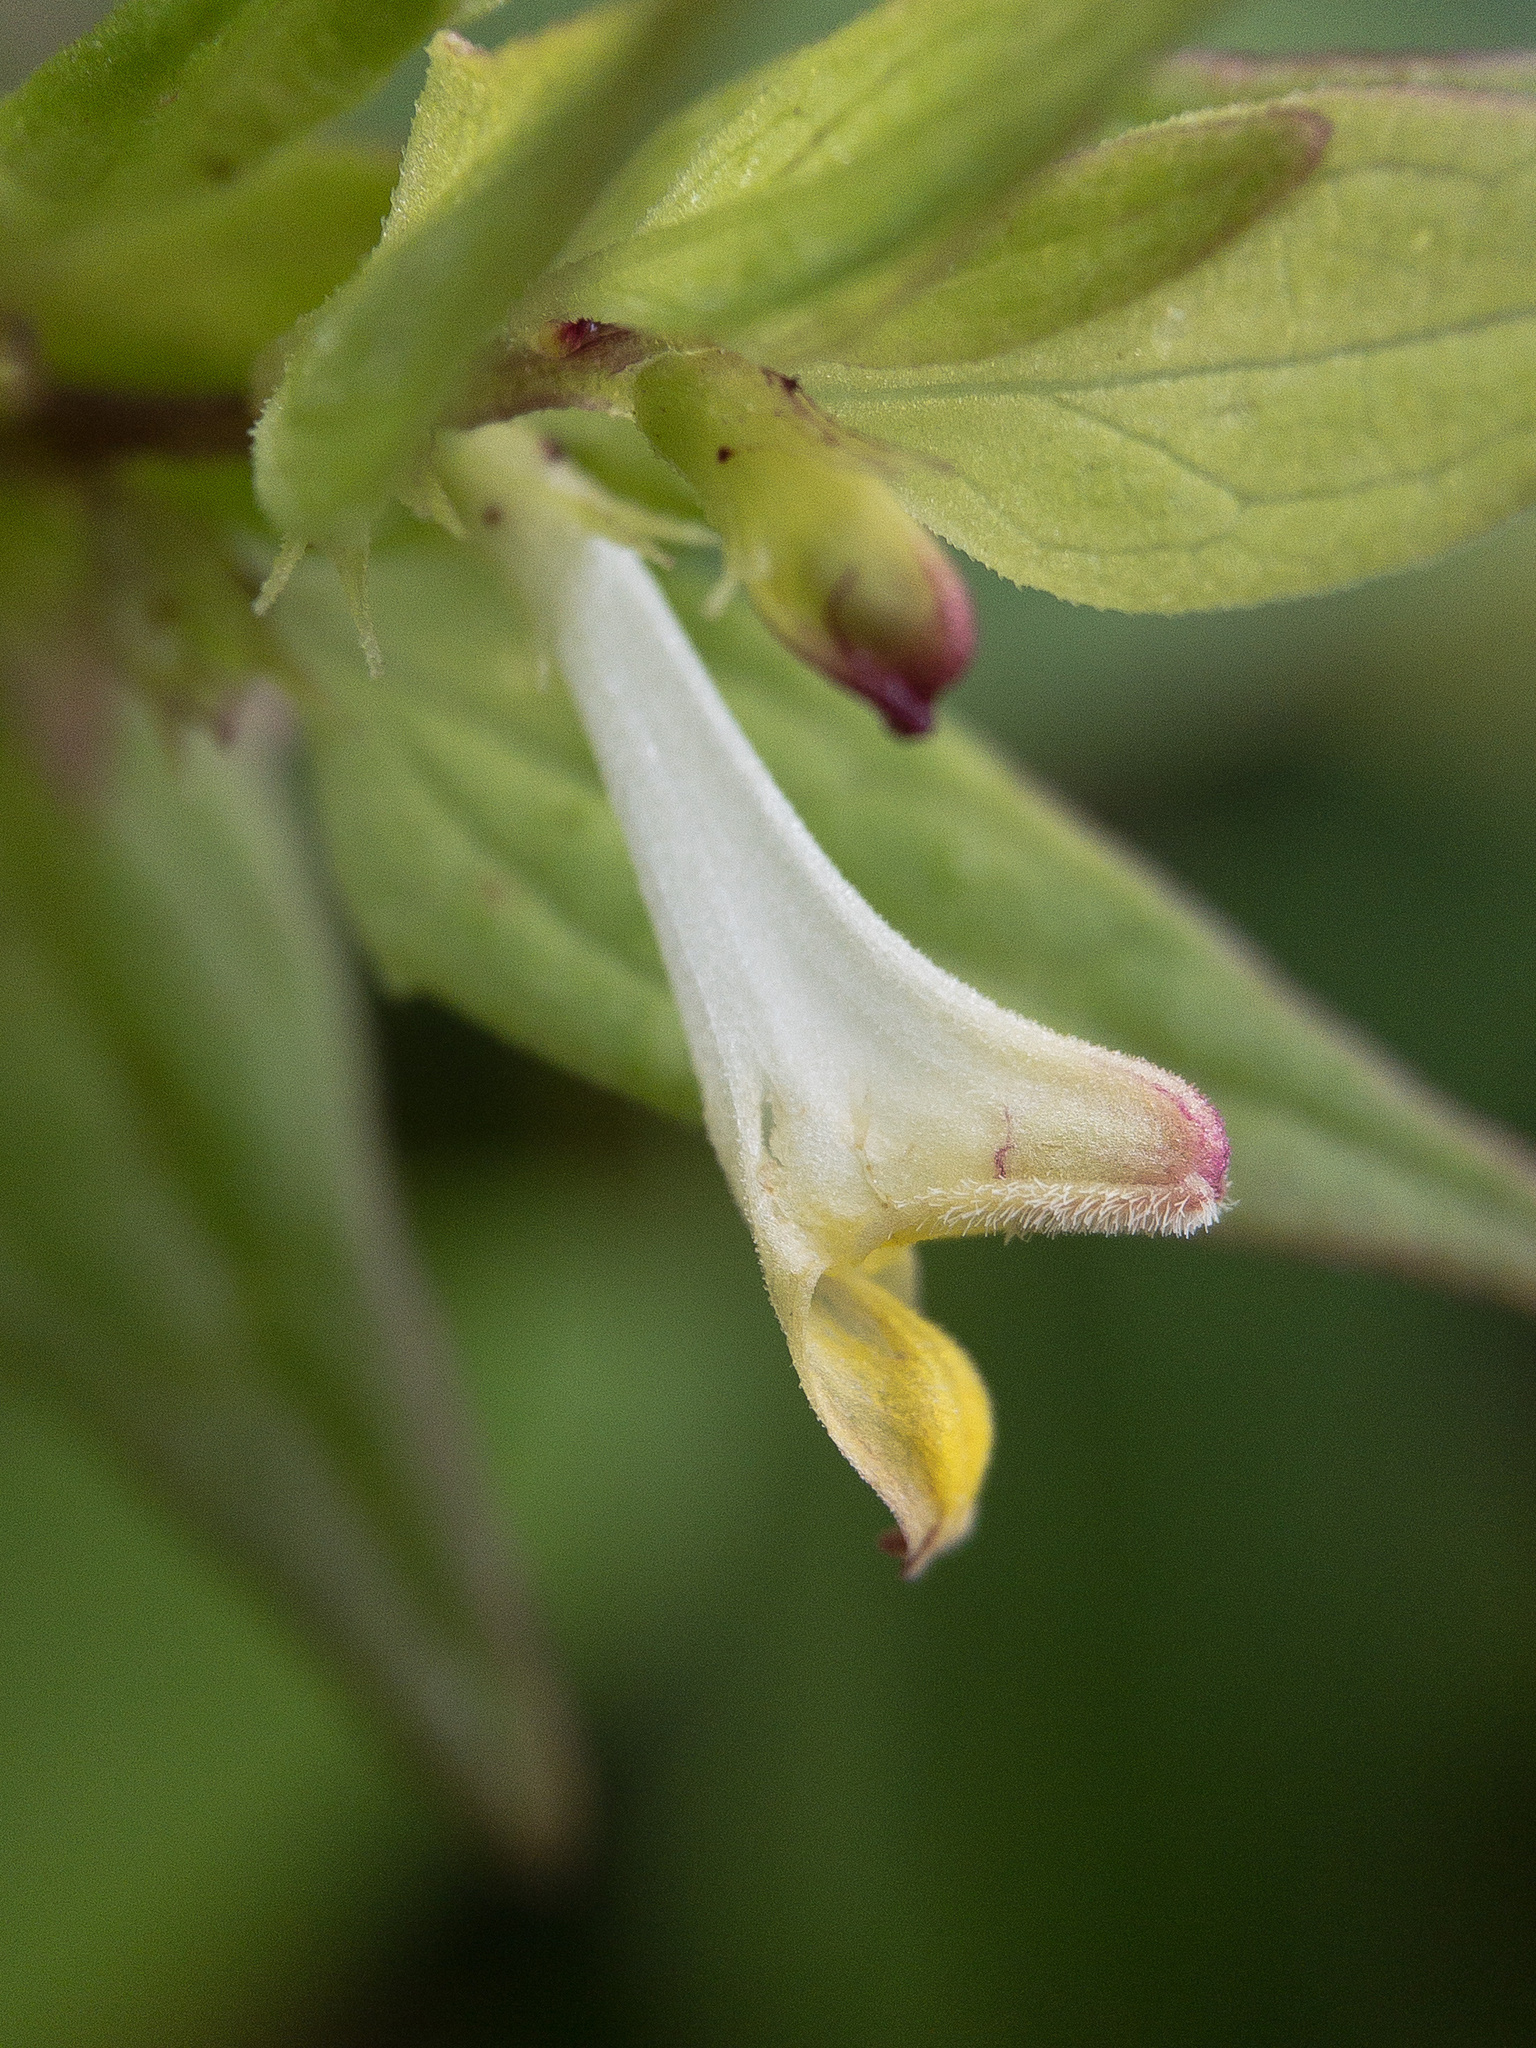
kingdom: Plantae
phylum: Tracheophyta
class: Magnoliopsida
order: Lamiales
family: Orobanchaceae
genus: Melampyrum
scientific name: Melampyrum lineare
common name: American cow-wheat
